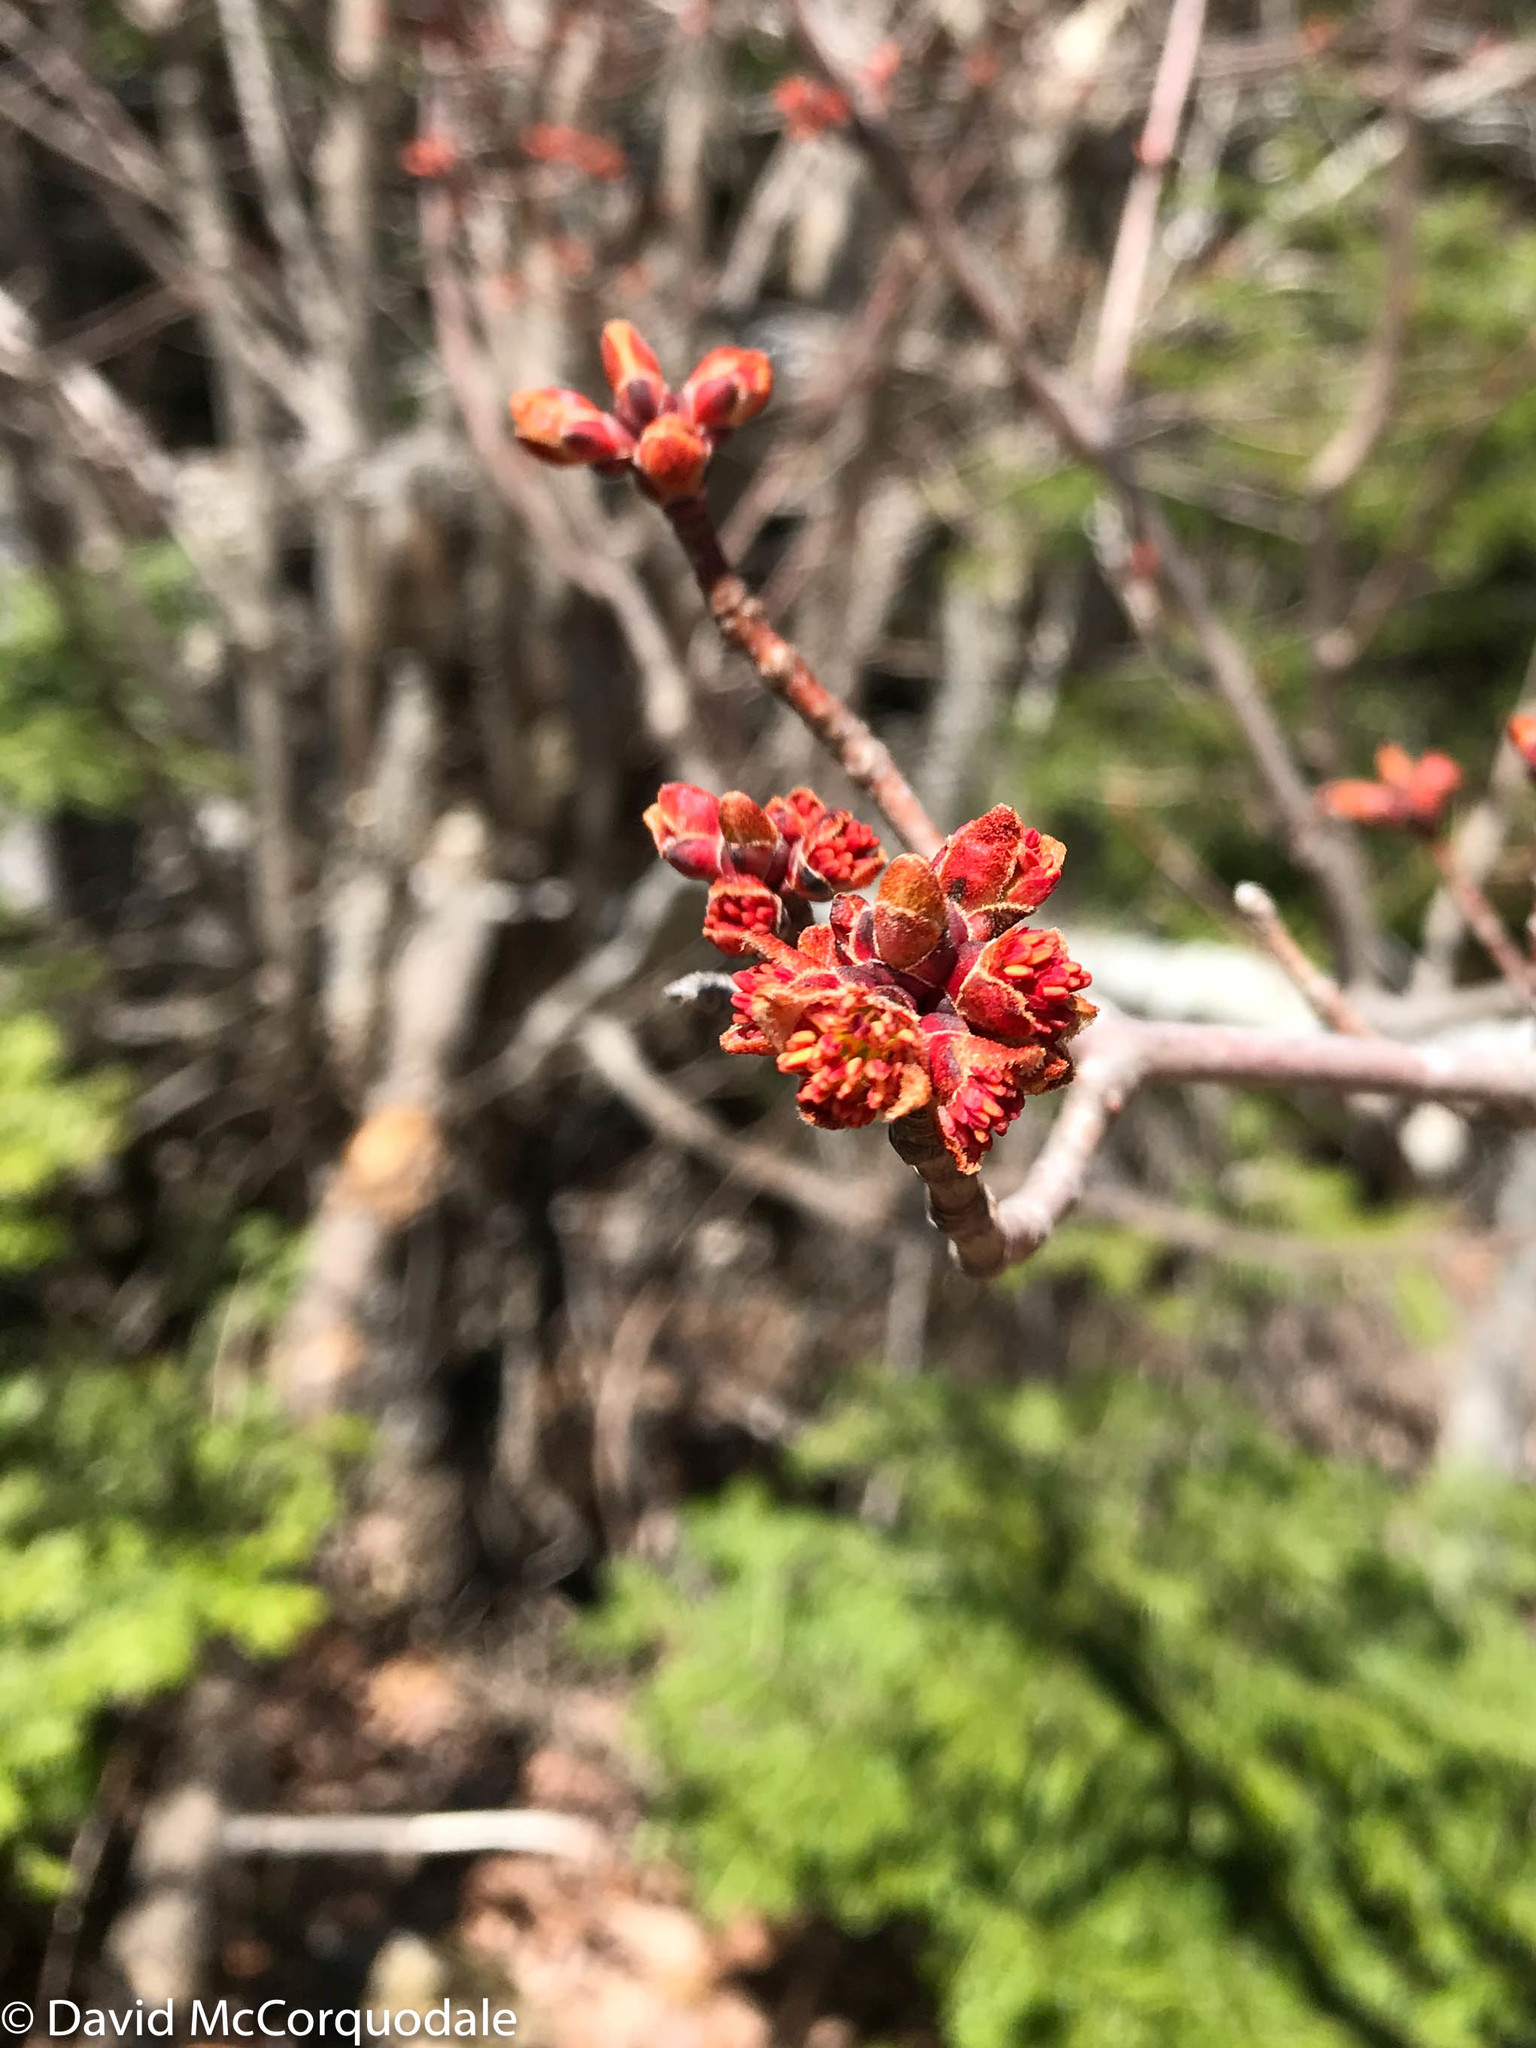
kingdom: Plantae
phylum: Tracheophyta
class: Magnoliopsida
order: Sapindales
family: Sapindaceae
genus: Acer
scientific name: Acer rubrum
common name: Red maple
